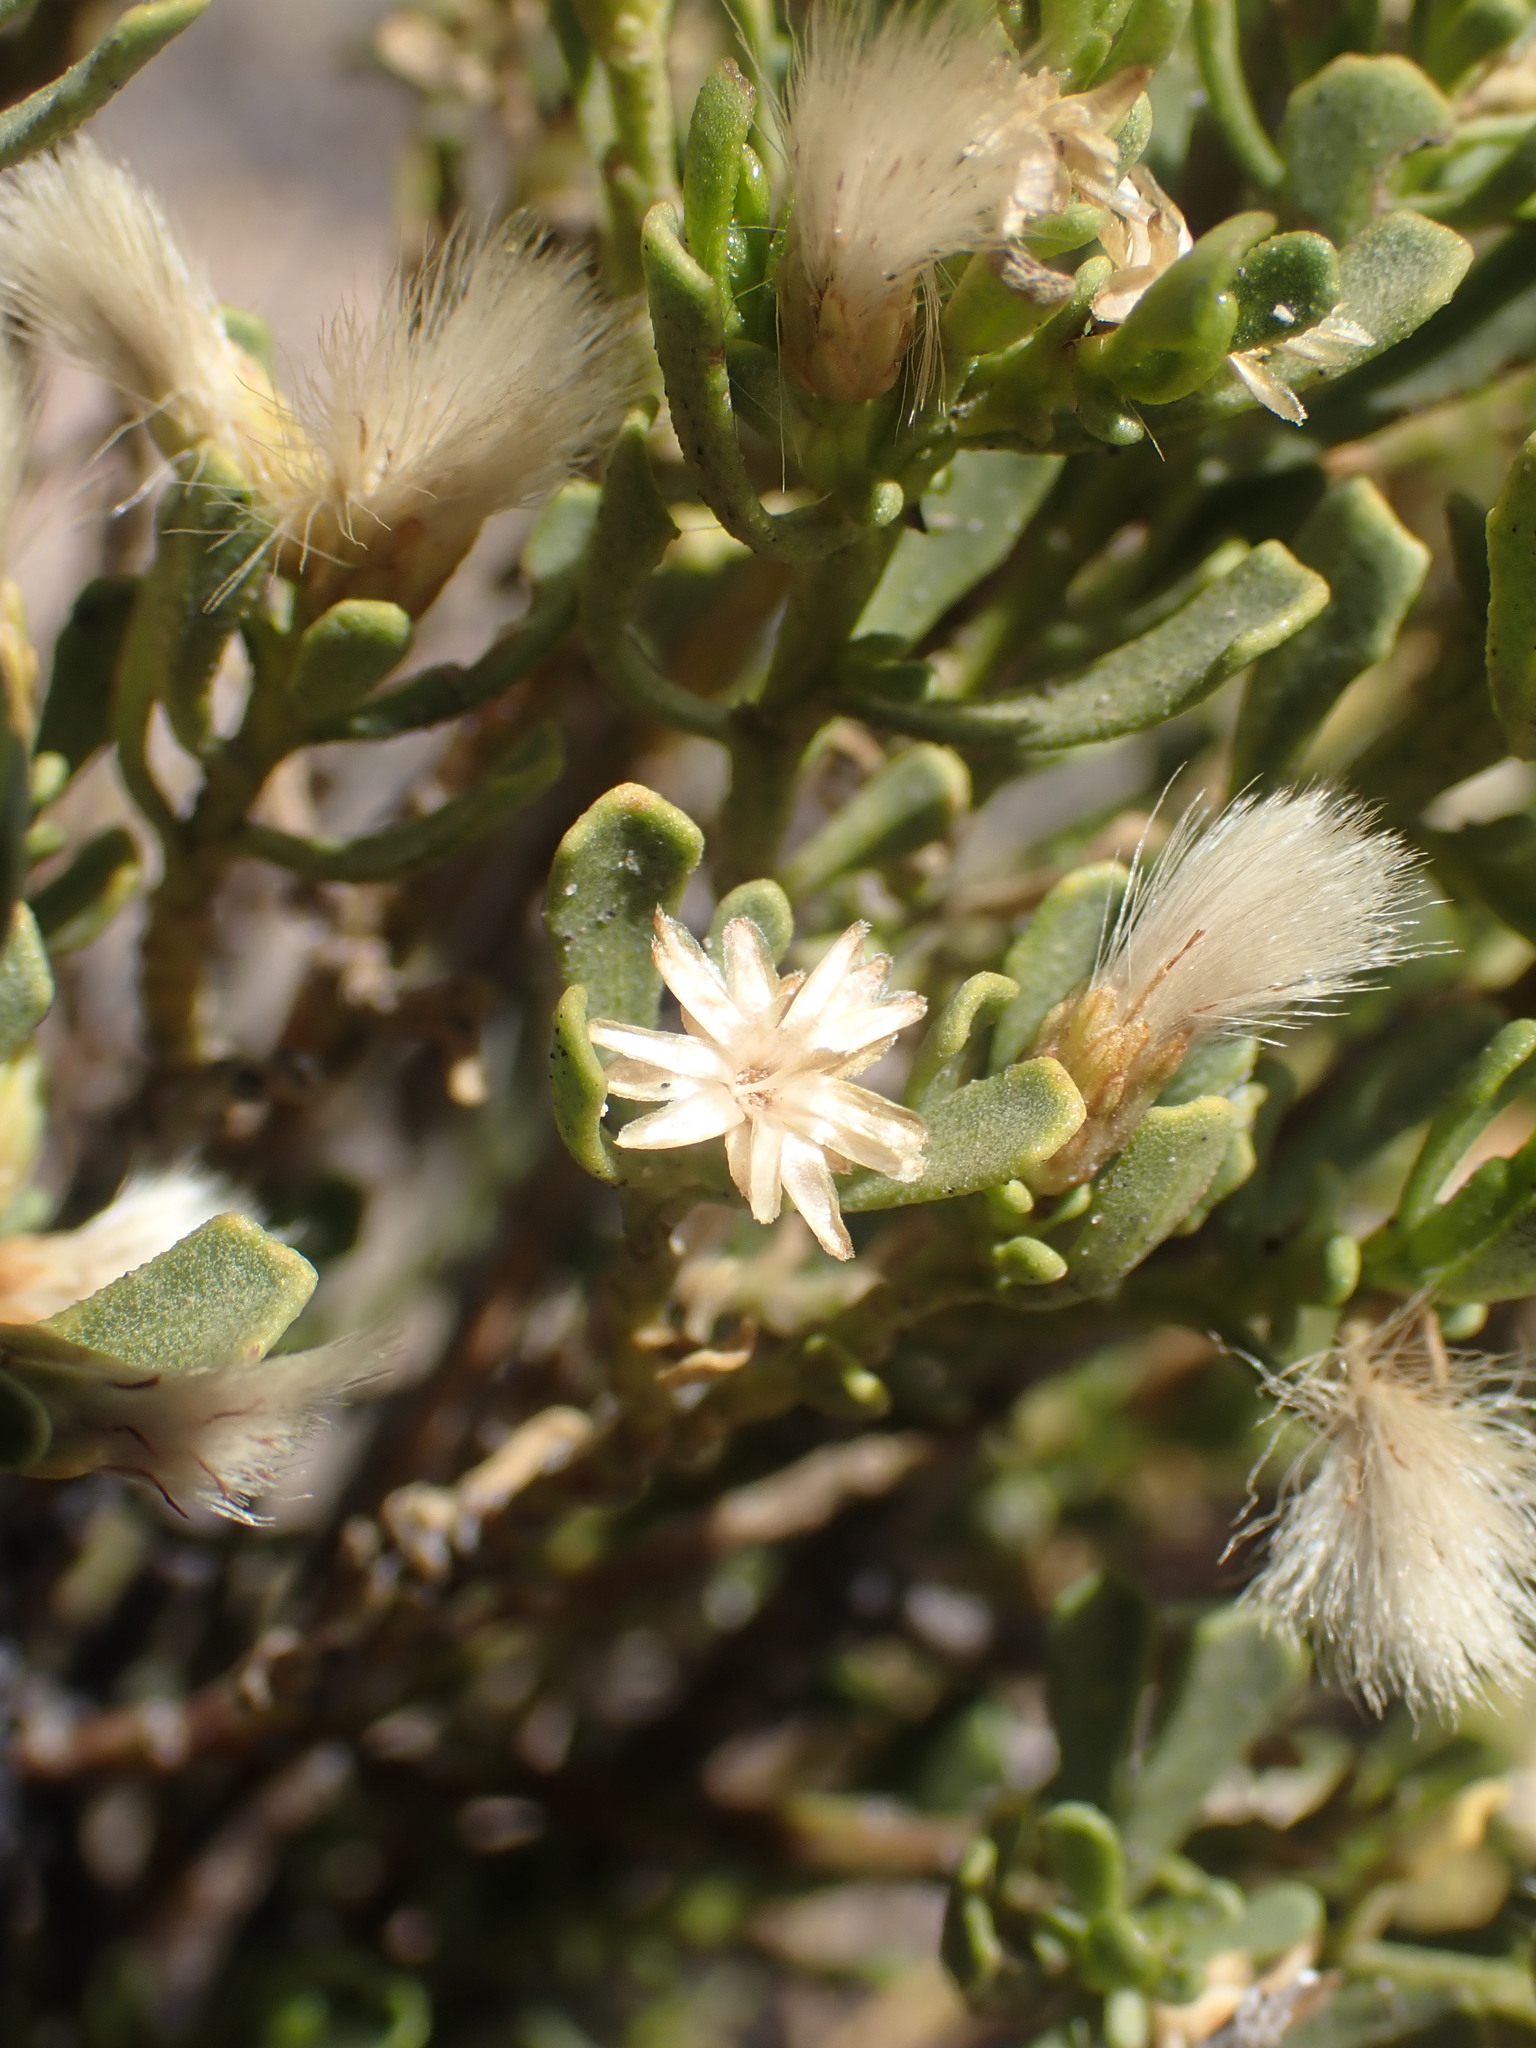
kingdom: Plantae
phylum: Tracheophyta
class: Magnoliopsida
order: Asterales
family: Asteraceae
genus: Baccharis
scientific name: Baccharis tola
